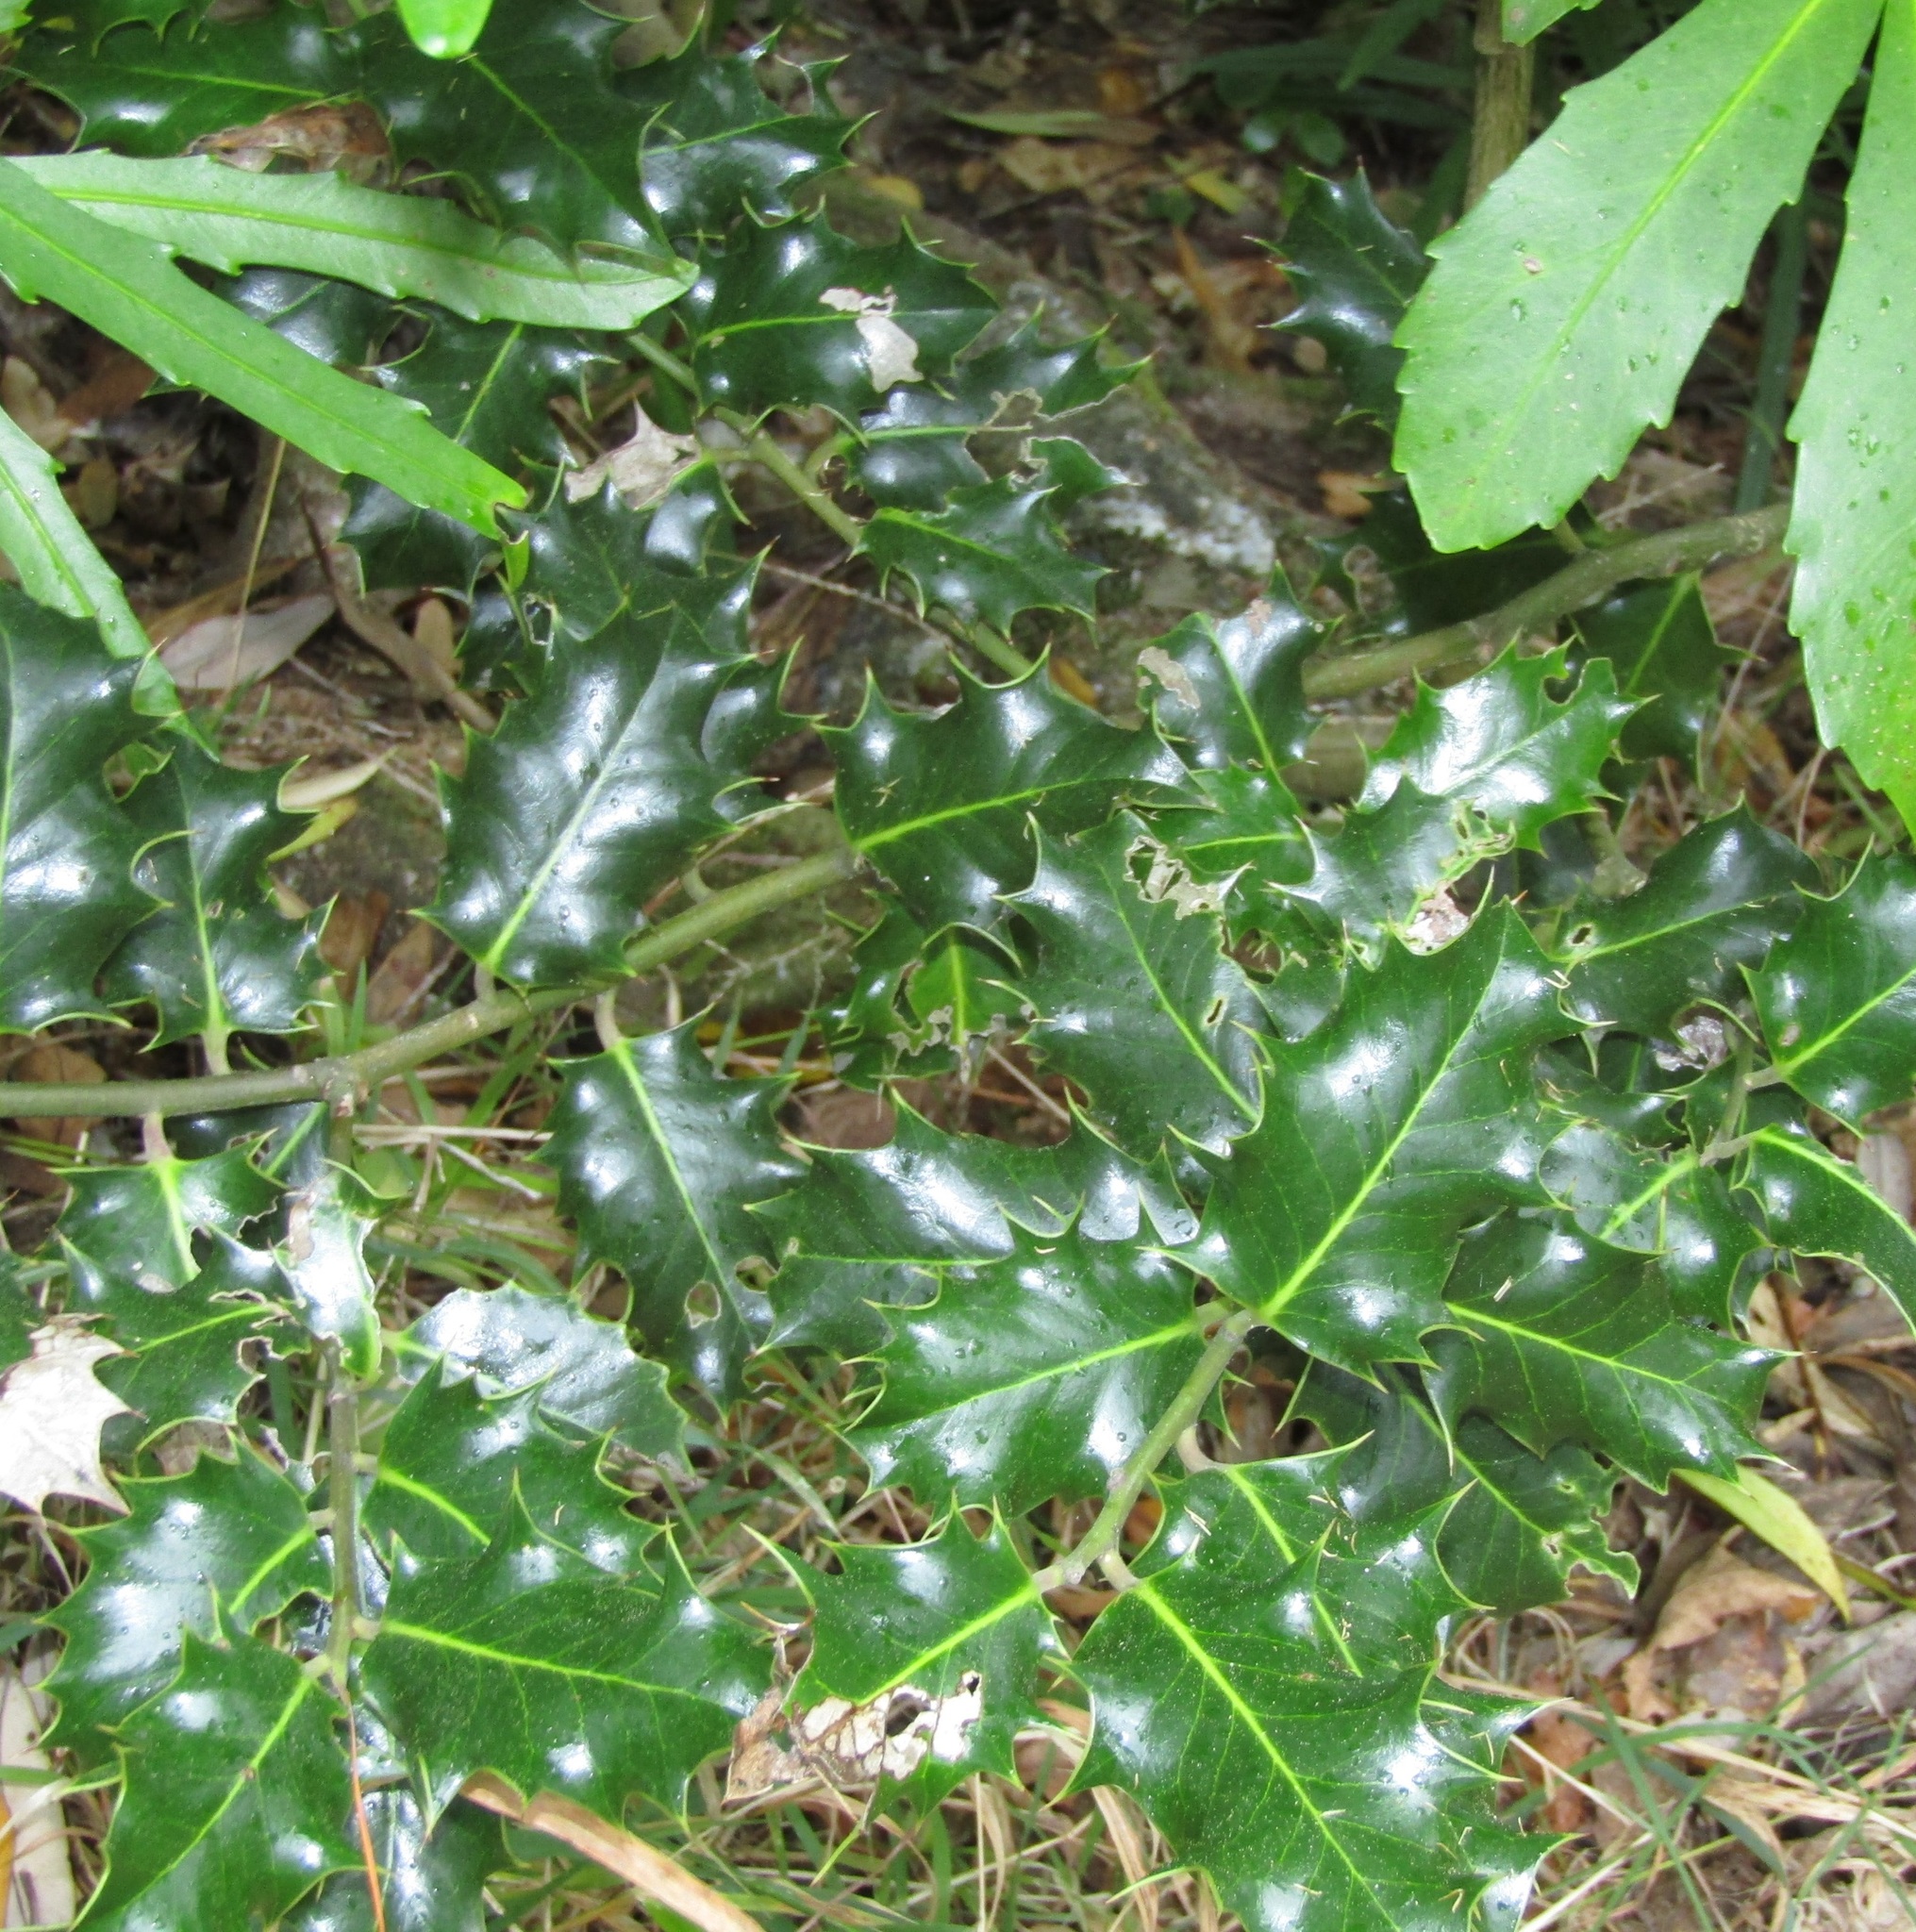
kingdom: Plantae
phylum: Tracheophyta
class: Magnoliopsida
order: Aquifoliales
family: Aquifoliaceae
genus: Ilex
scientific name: Ilex aquifolium
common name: English holly
